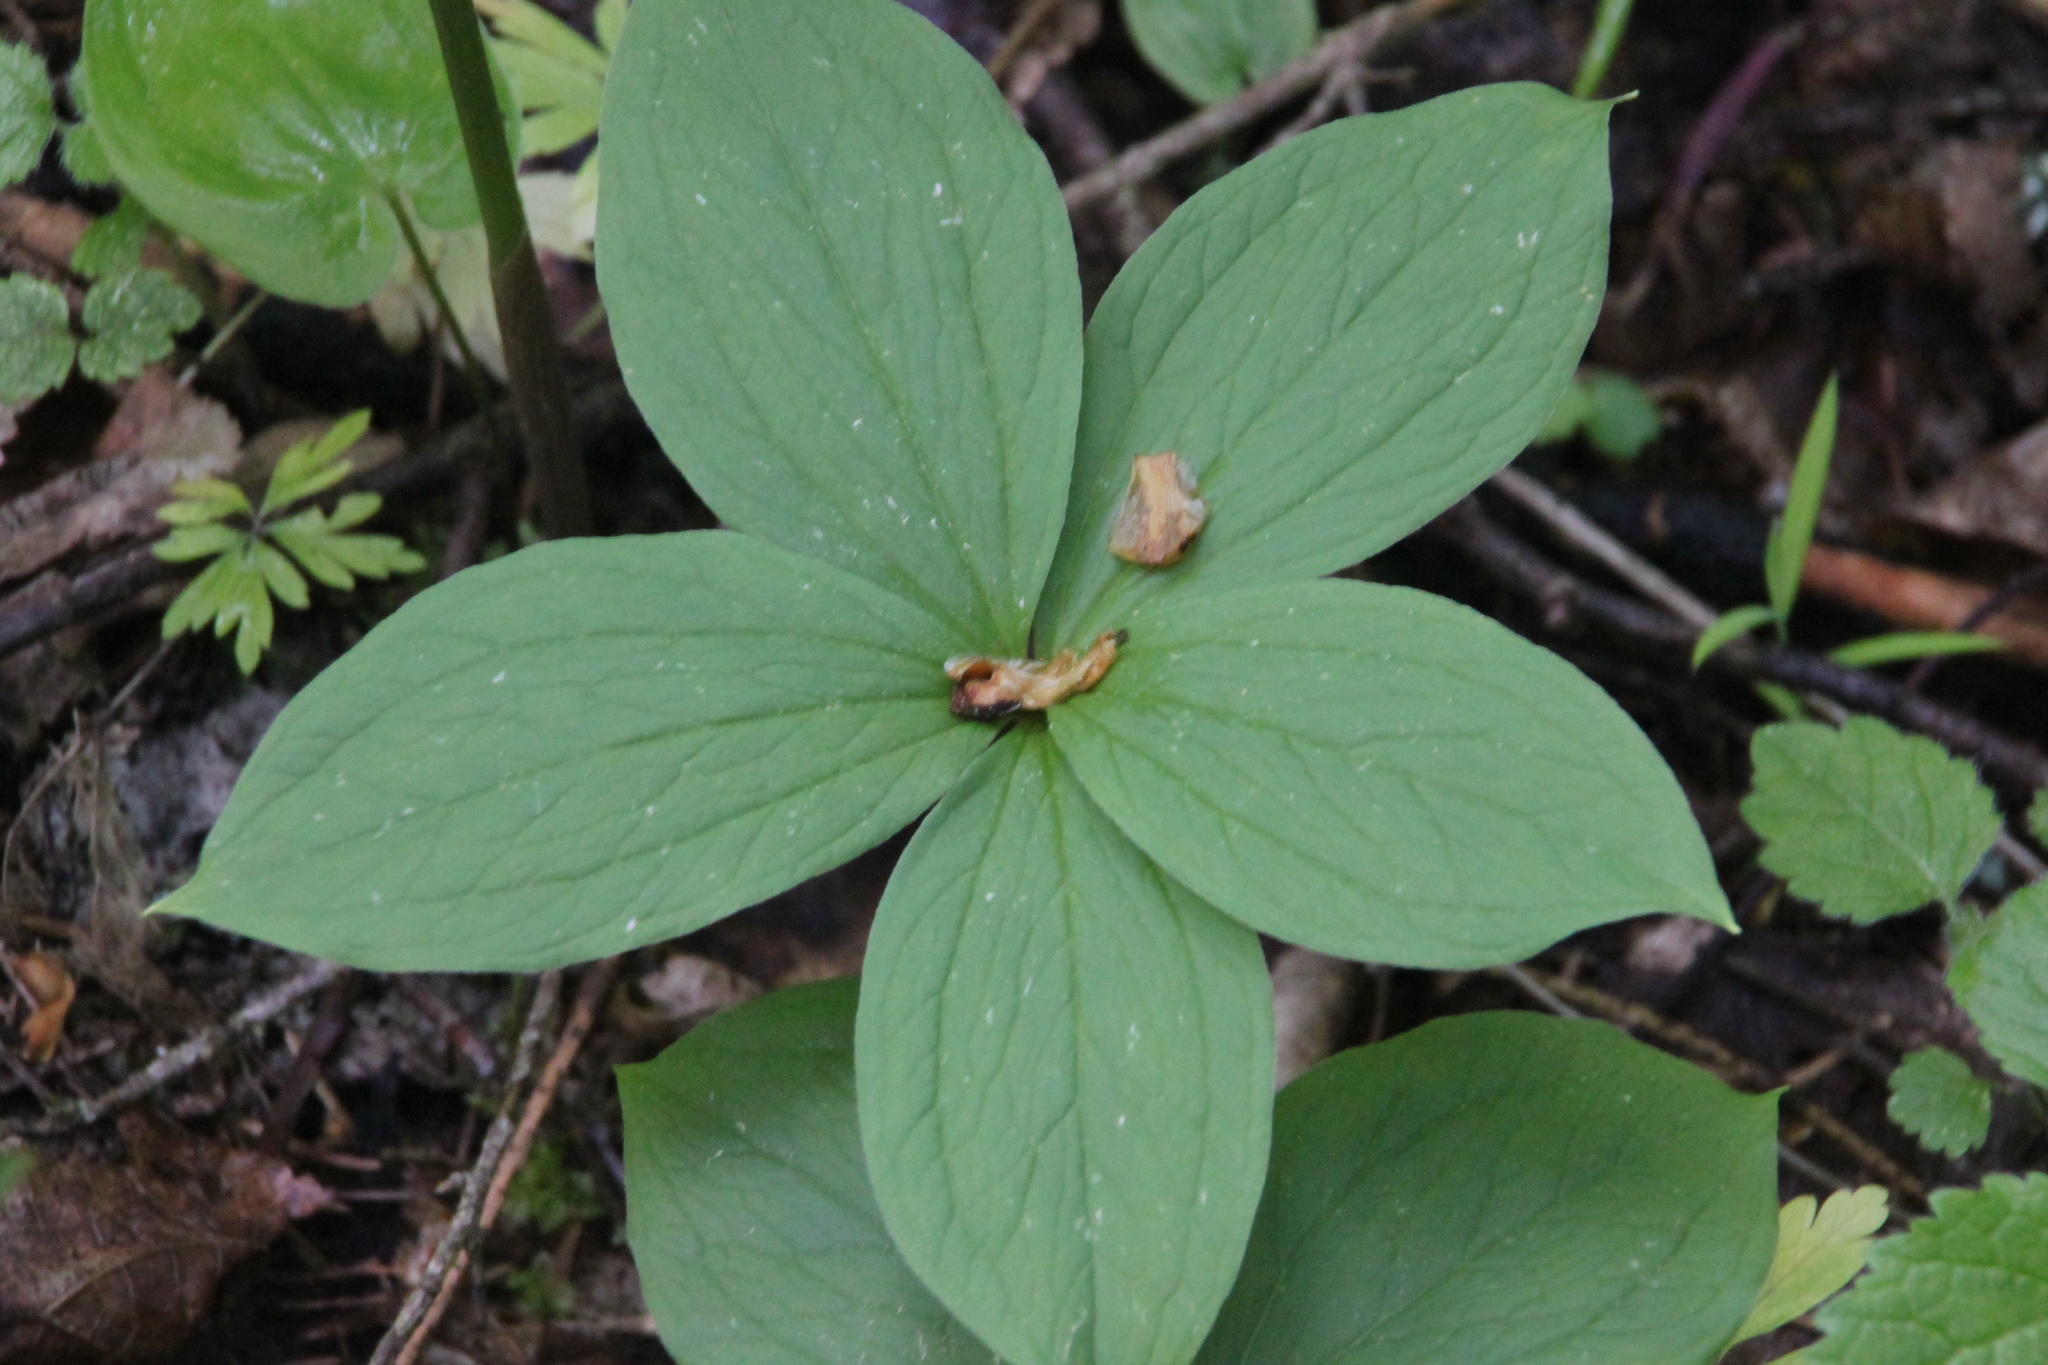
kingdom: Plantae
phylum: Tracheophyta
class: Liliopsida
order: Liliales
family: Melanthiaceae
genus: Paris
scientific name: Paris quadrifolia
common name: Herb-paris
